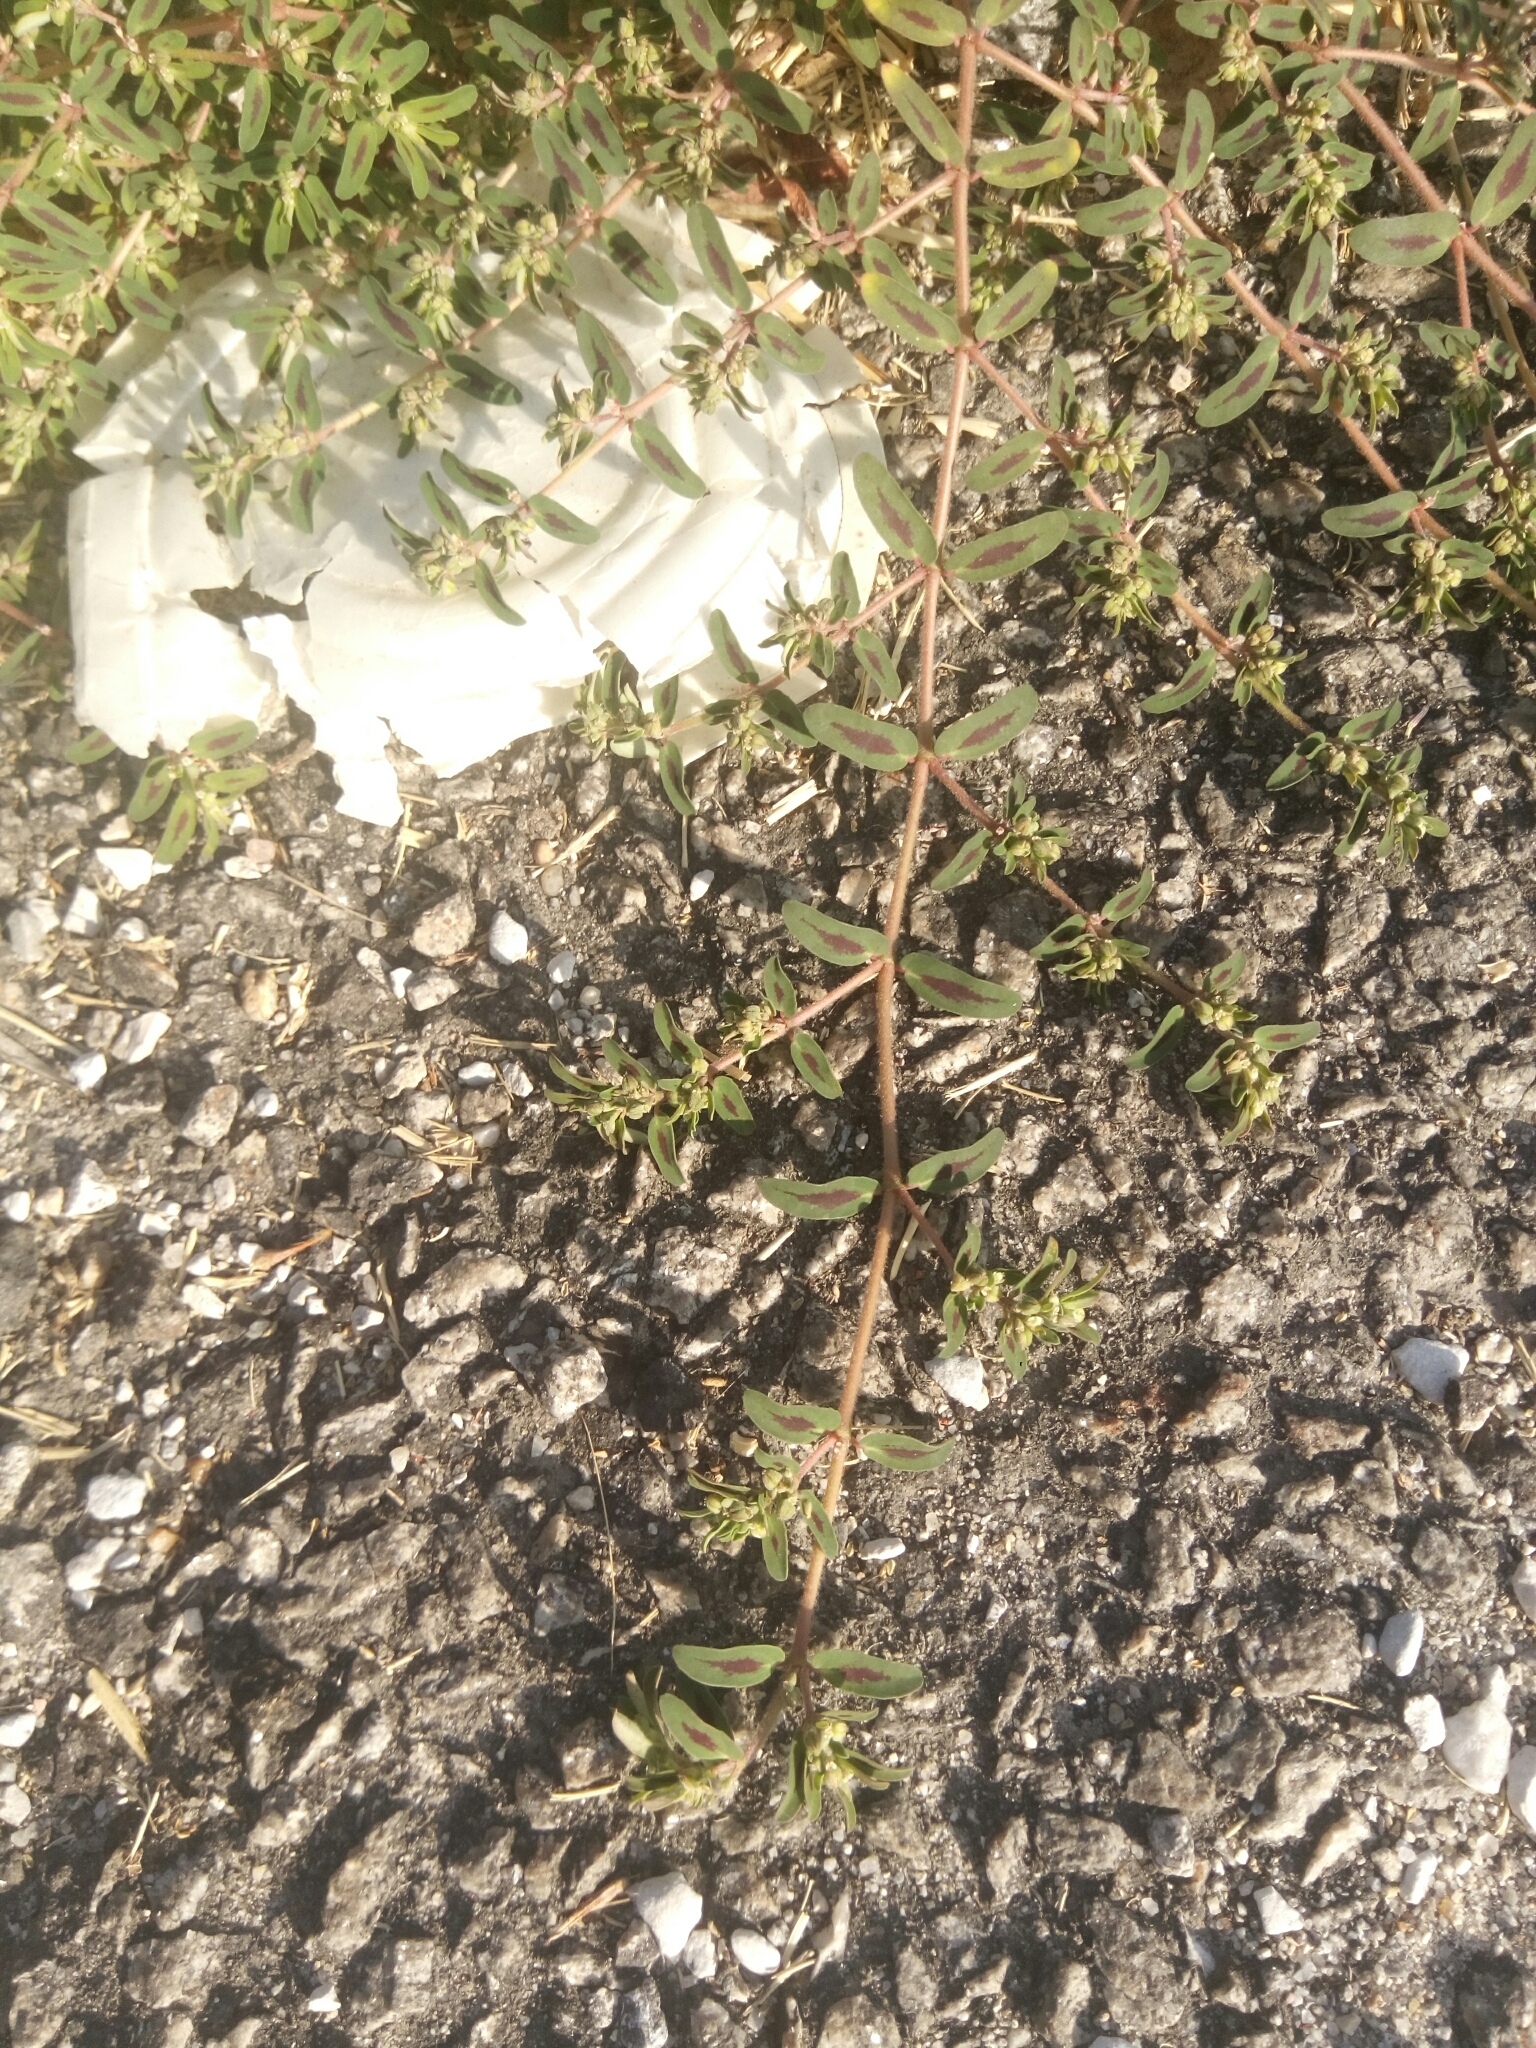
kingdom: Plantae
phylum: Tracheophyta
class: Magnoliopsida
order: Malpighiales
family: Euphorbiaceae
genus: Euphorbia
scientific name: Euphorbia maculata
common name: Spotted spurge
